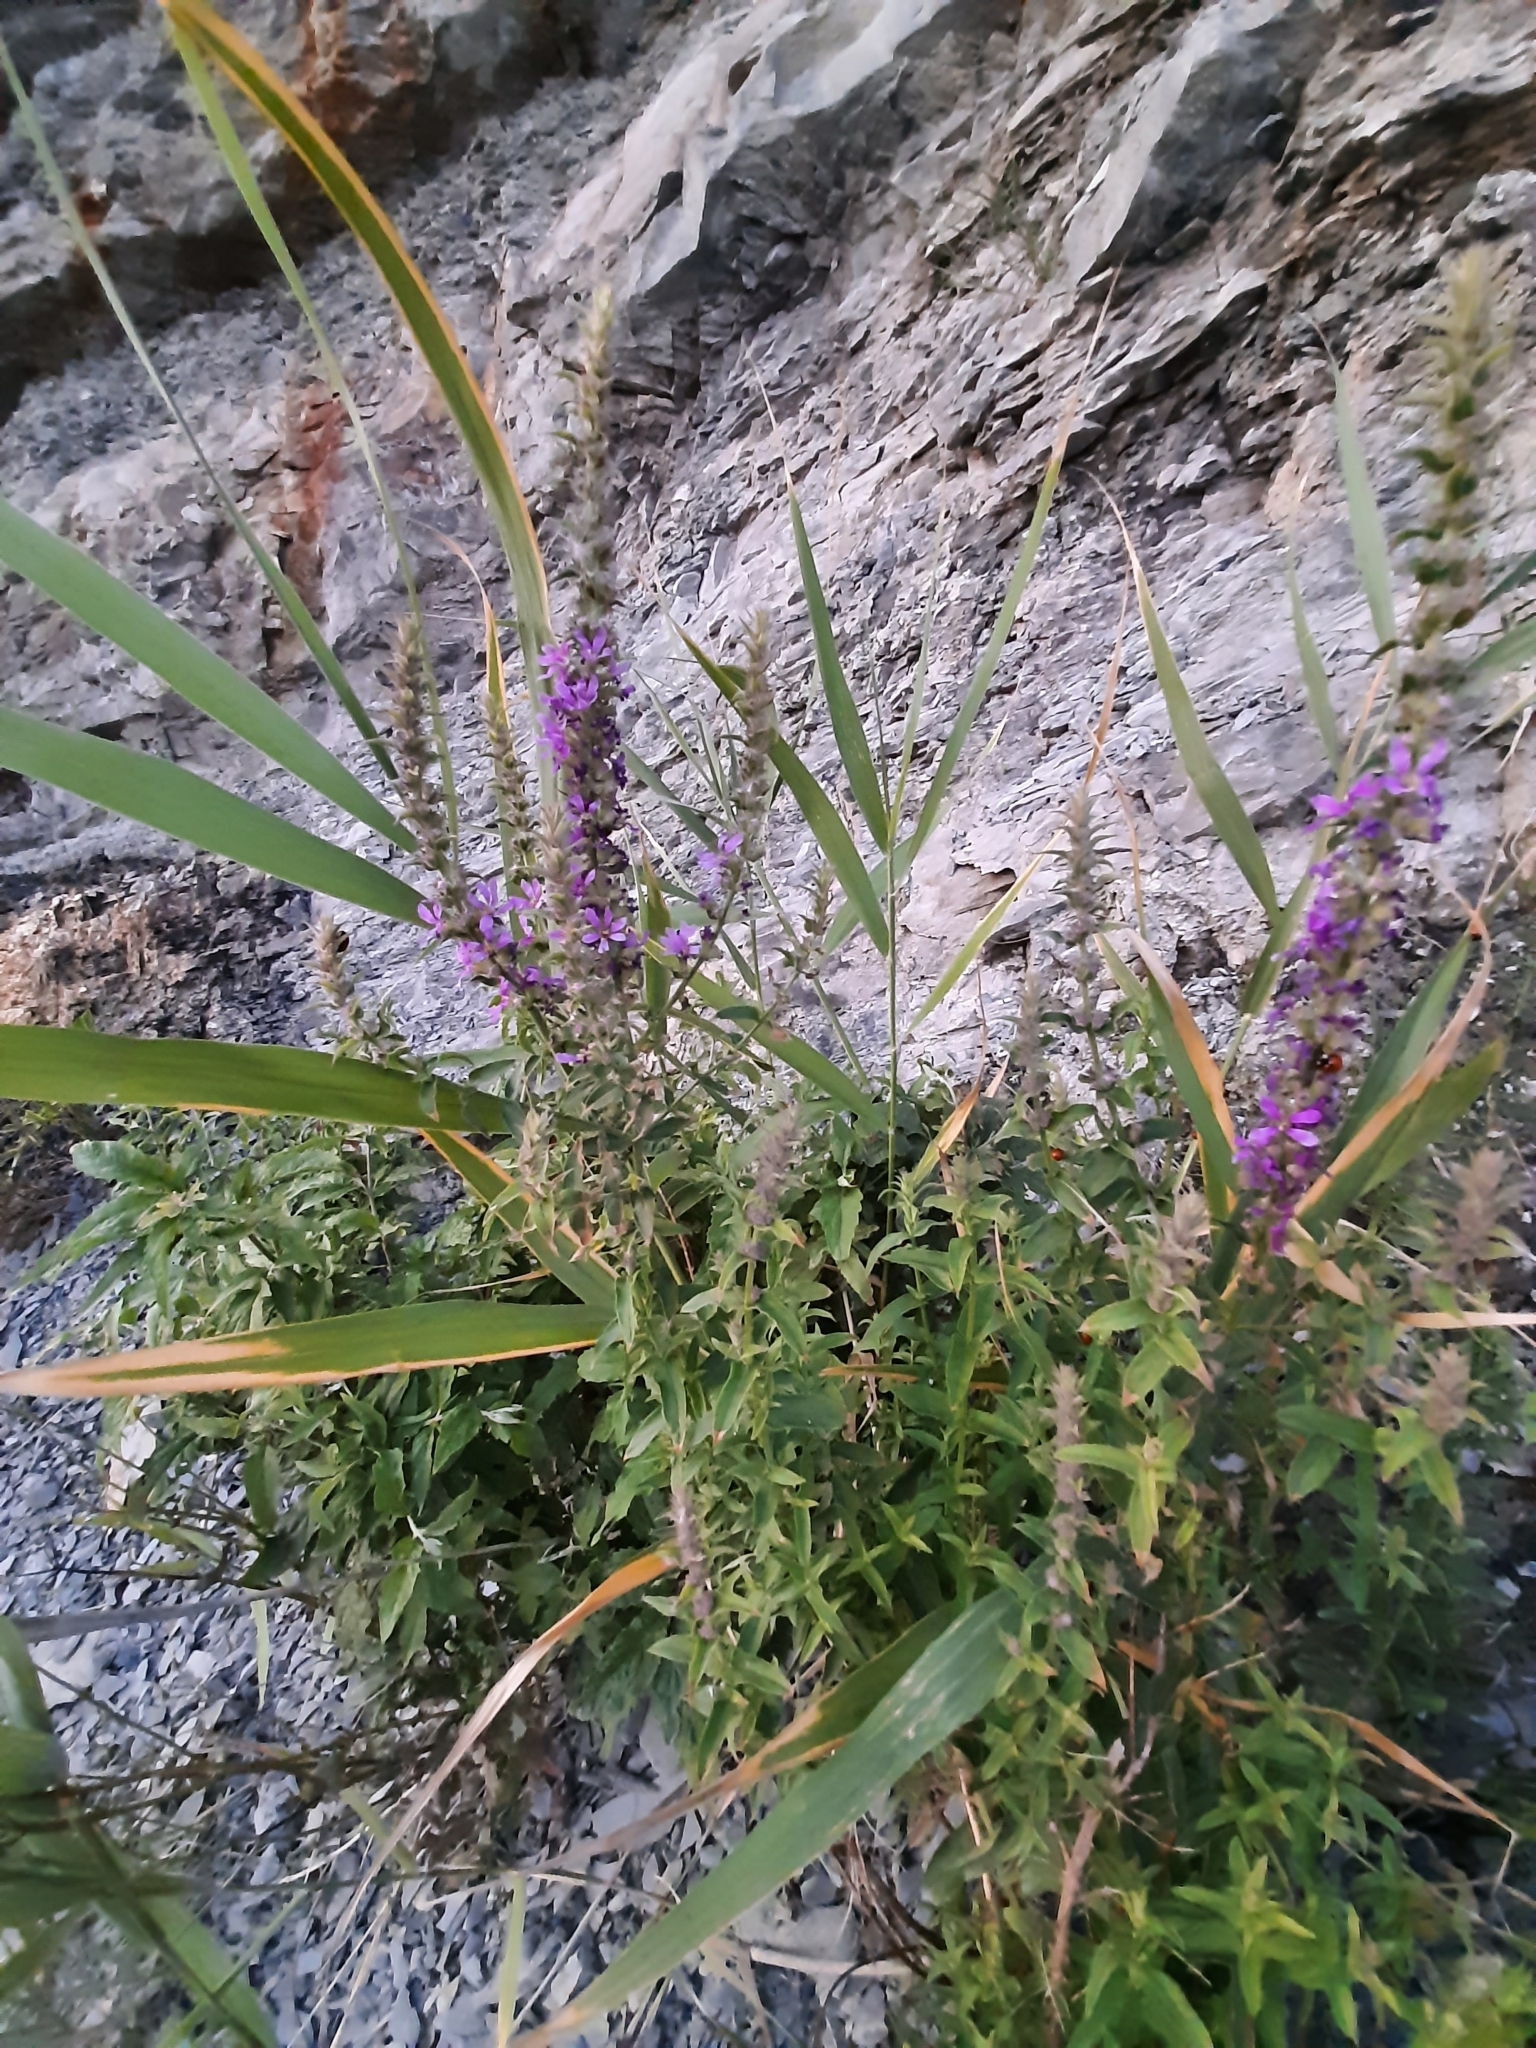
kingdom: Plantae
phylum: Tracheophyta
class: Magnoliopsida
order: Myrtales
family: Lythraceae
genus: Lythrum
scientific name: Lythrum salicaria
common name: Purple loosestrife
